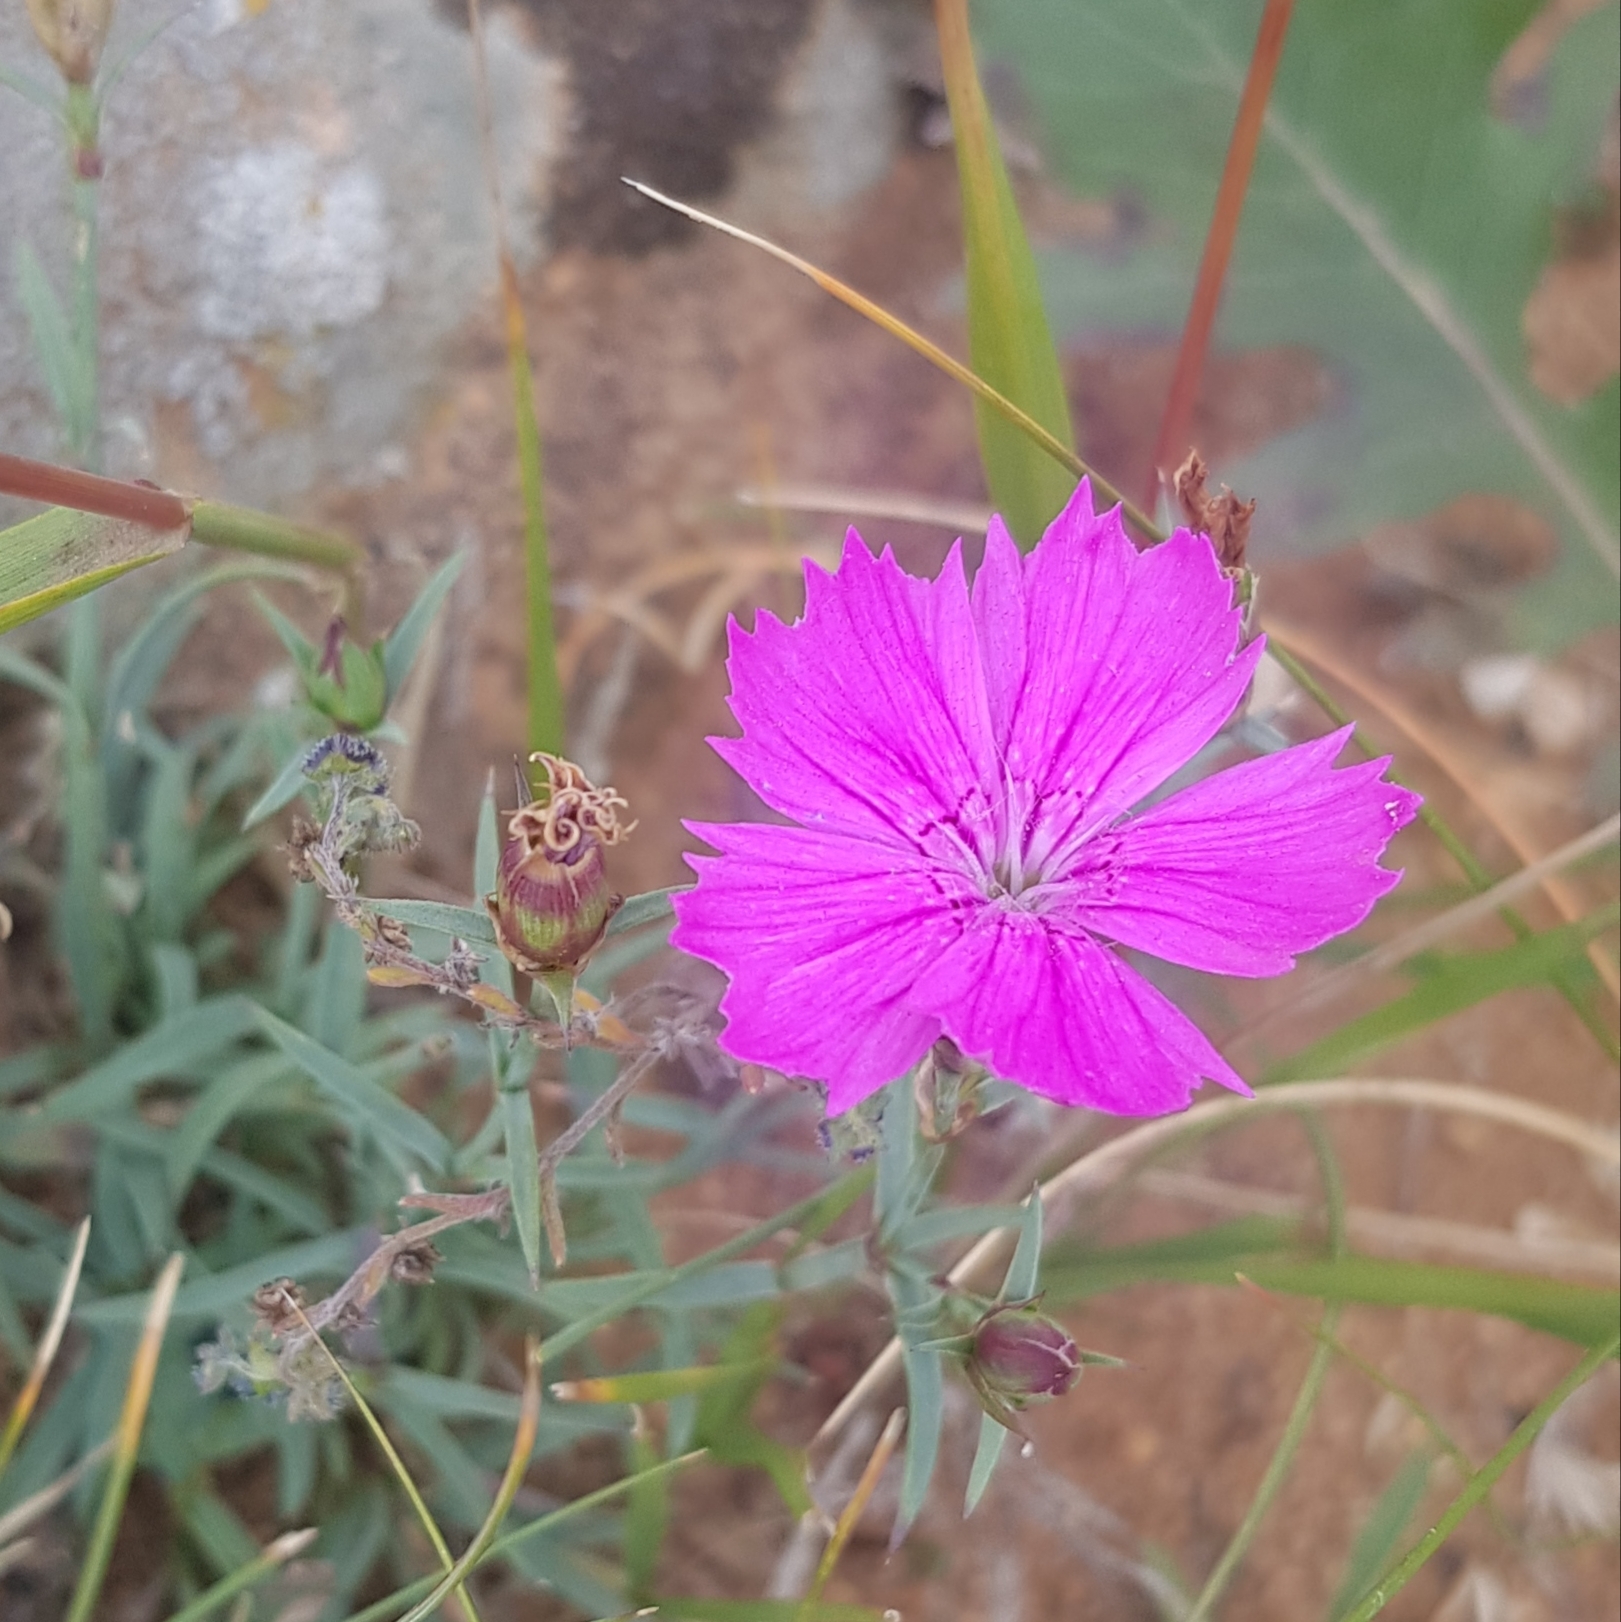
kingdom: Plantae
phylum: Tracheophyta
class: Magnoliopsida
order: Caryophyllales
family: Caryophyllaceae
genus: Dianthus
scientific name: Dianthus chinensis
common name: Rainbow pink
